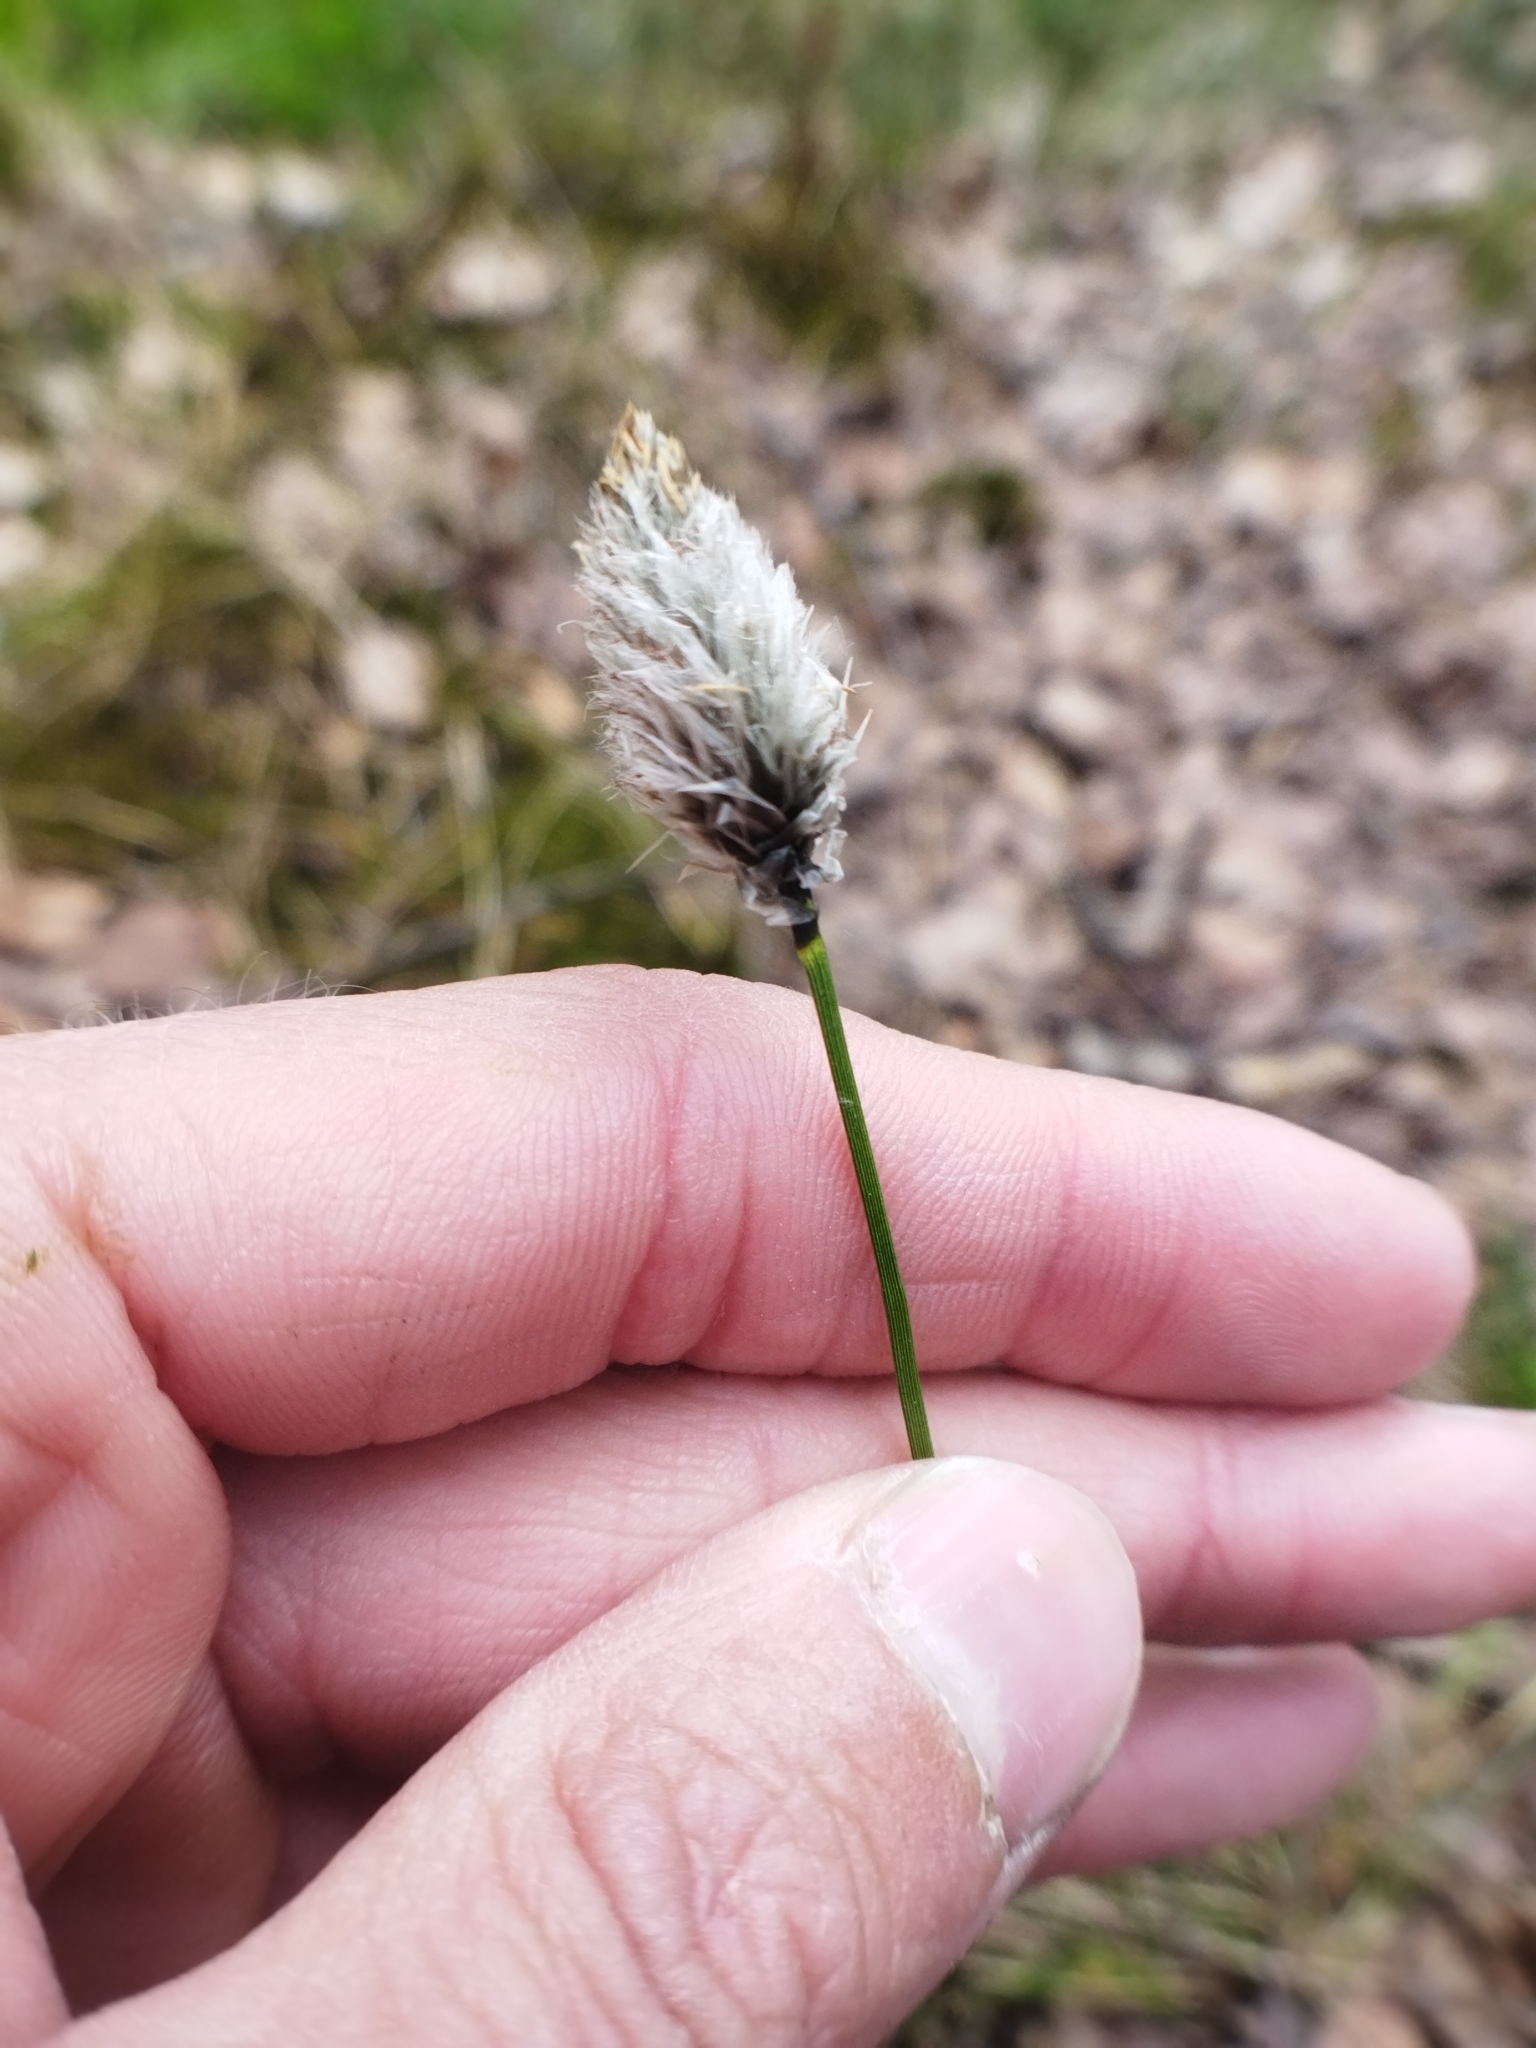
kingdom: Plantae
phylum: Tracheophyta
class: Liliopsida
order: Poales
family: Cyperaceae
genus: Eriophorum
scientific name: Eriophorum vaginatum
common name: Hare's-tail cottongrass
